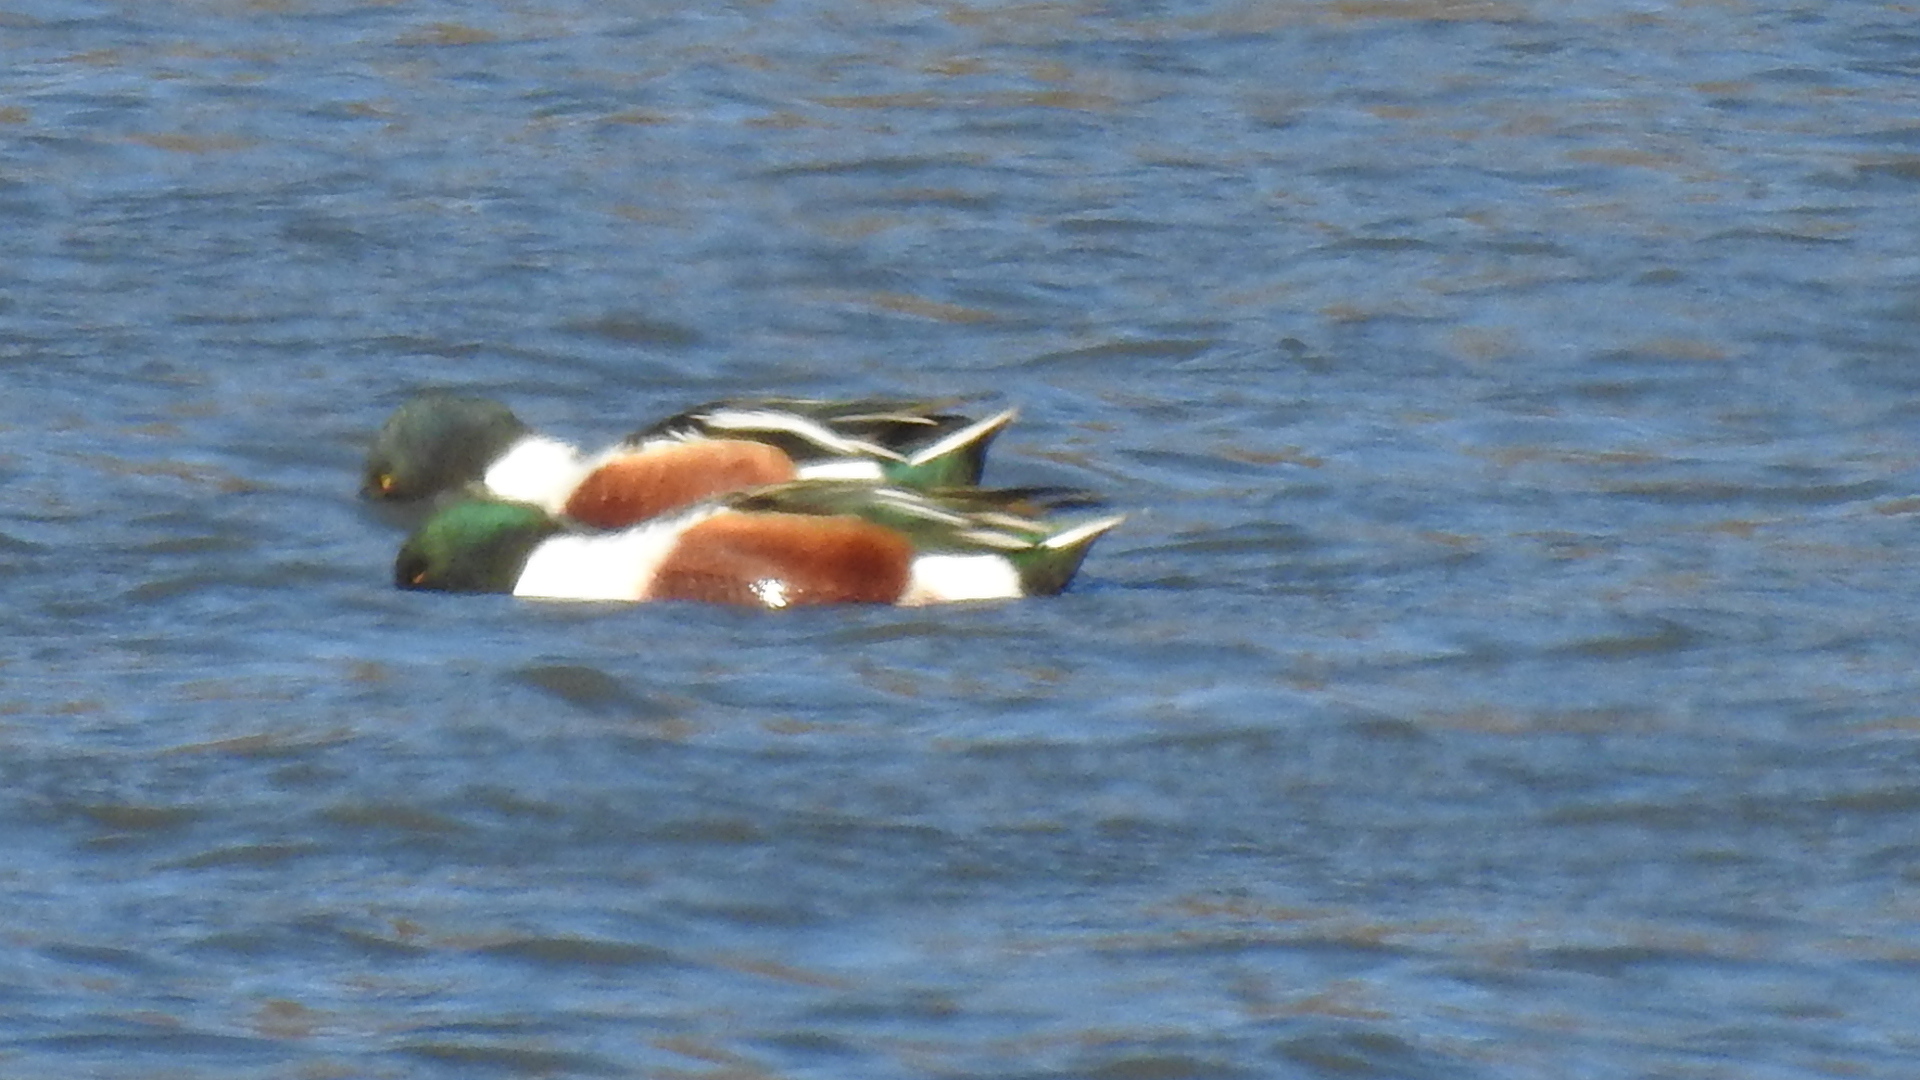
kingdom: Animalia
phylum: Chordata
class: Aves
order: Anseriformes
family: Anatidae
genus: Spatula
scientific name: Spatula clypeata
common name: Northern shoveler
